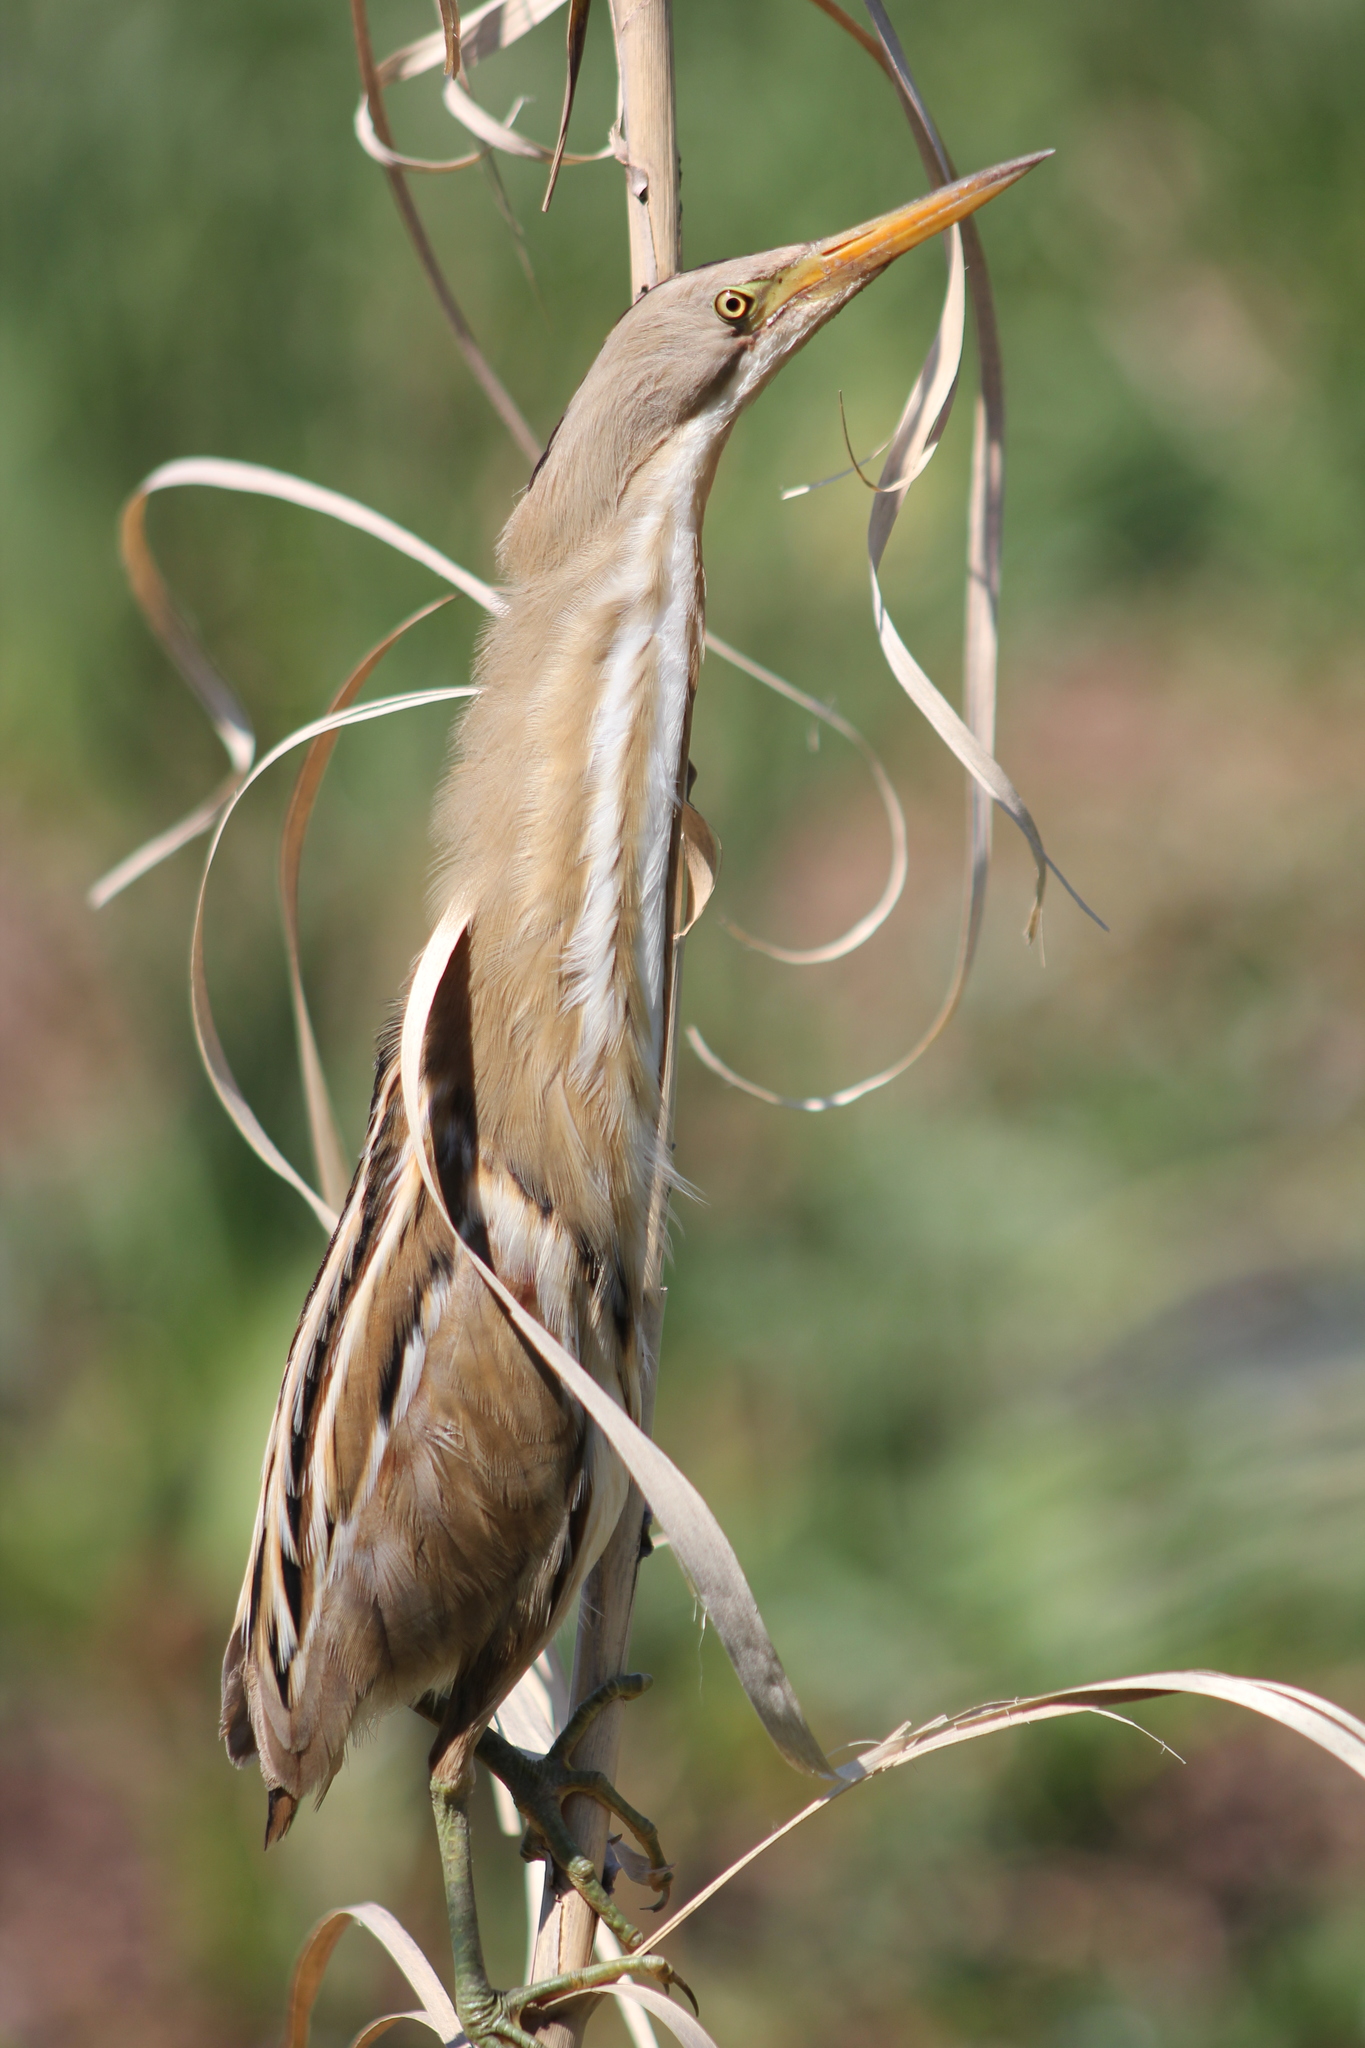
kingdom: Animalia
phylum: Chordata
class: Aves
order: Pelecaniformes
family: Ardeidae
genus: Ixobrychus
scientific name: Ixobrychus involucris
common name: Stripe-backed bittern
